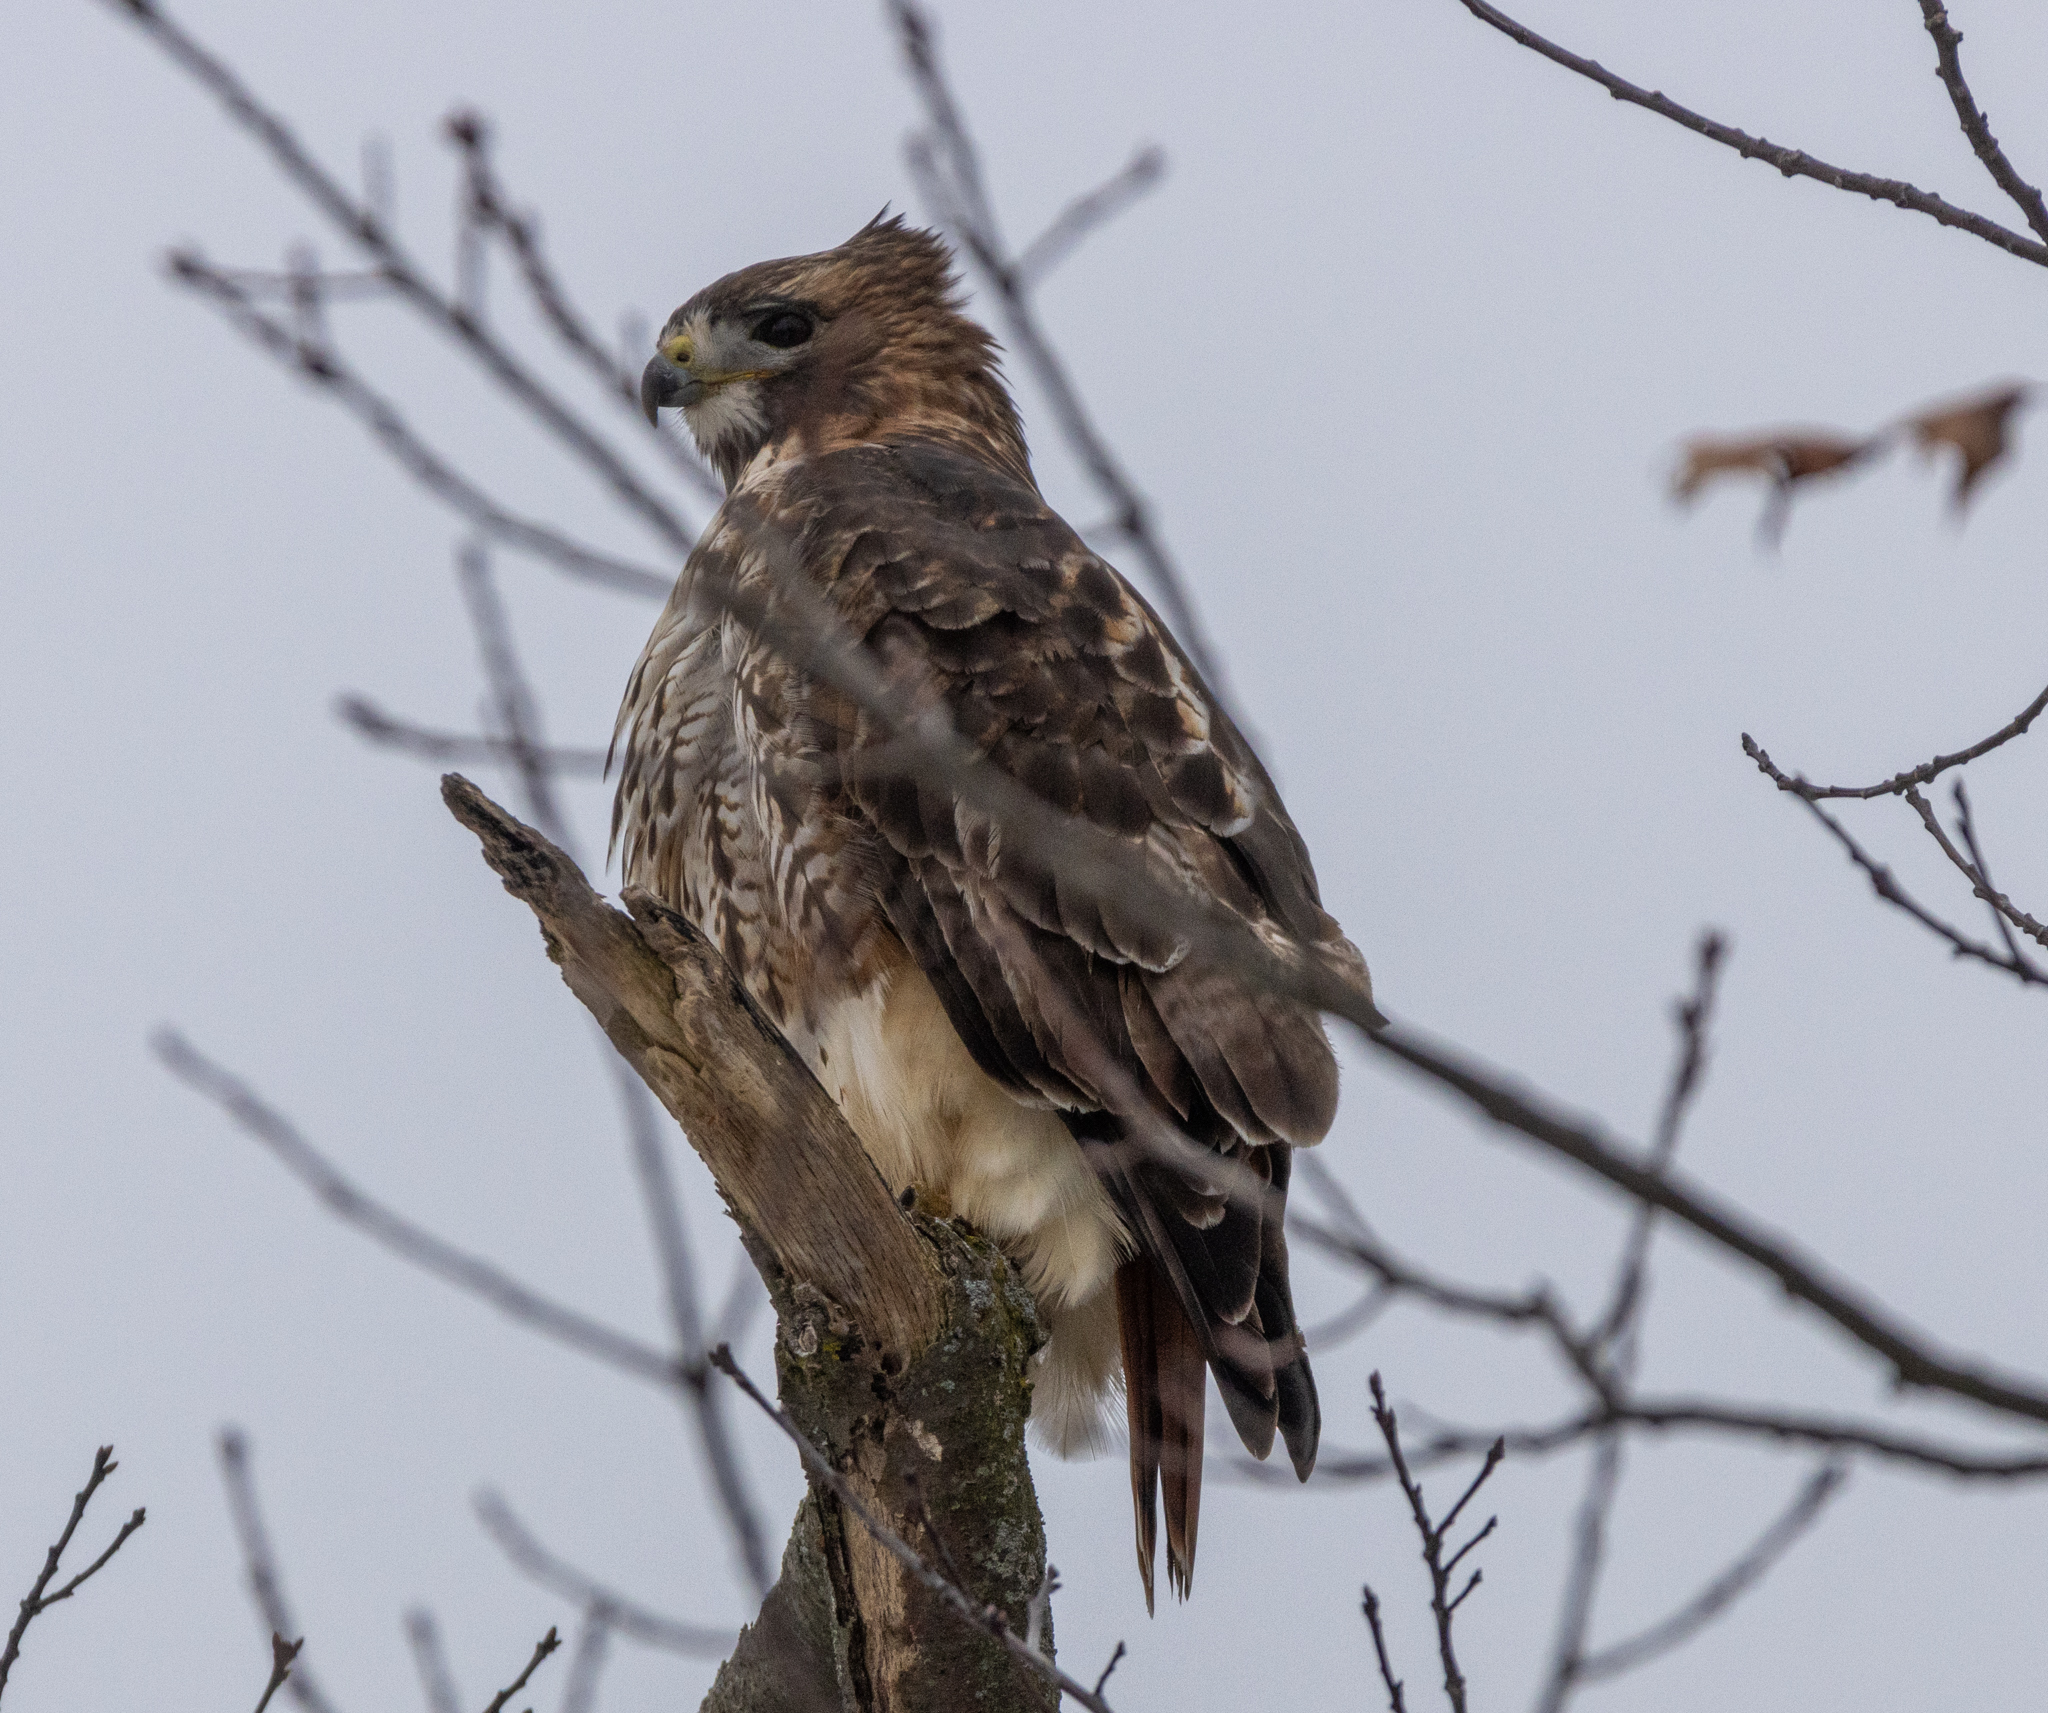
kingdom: Animalia
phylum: Chordata
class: Aves
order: Accipitriformes
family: Accipitridae
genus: Buteo
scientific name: Buteo jamaicensis
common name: Red-tailed hawk
